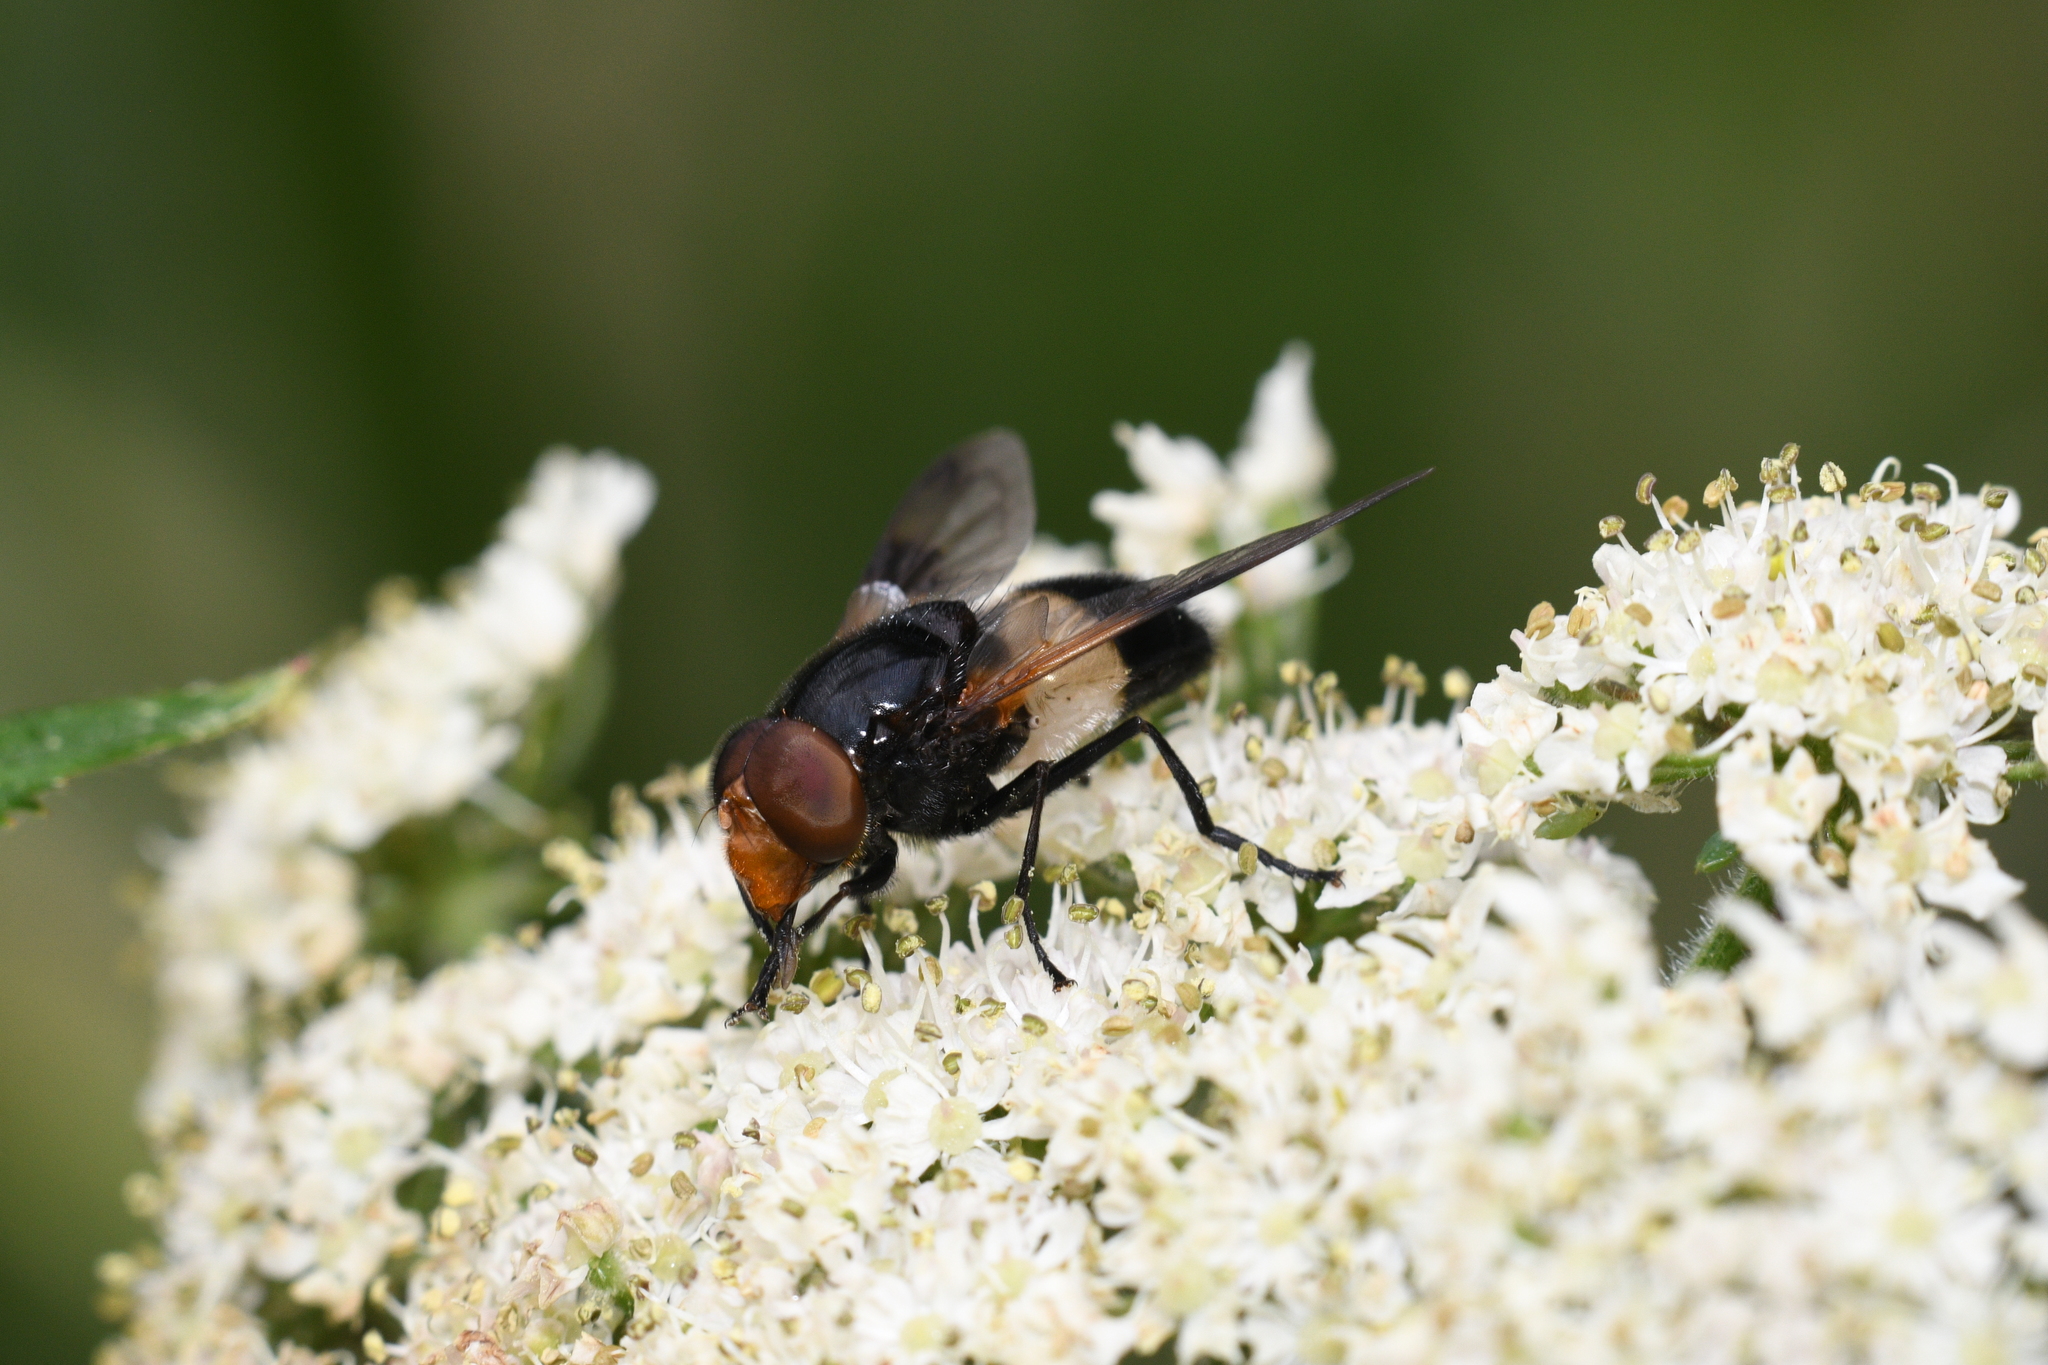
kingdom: Animalia
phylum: Arthropoda
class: Insecta
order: Diptera
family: Syrphidae
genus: Volucella
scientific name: Volucella pellucens
